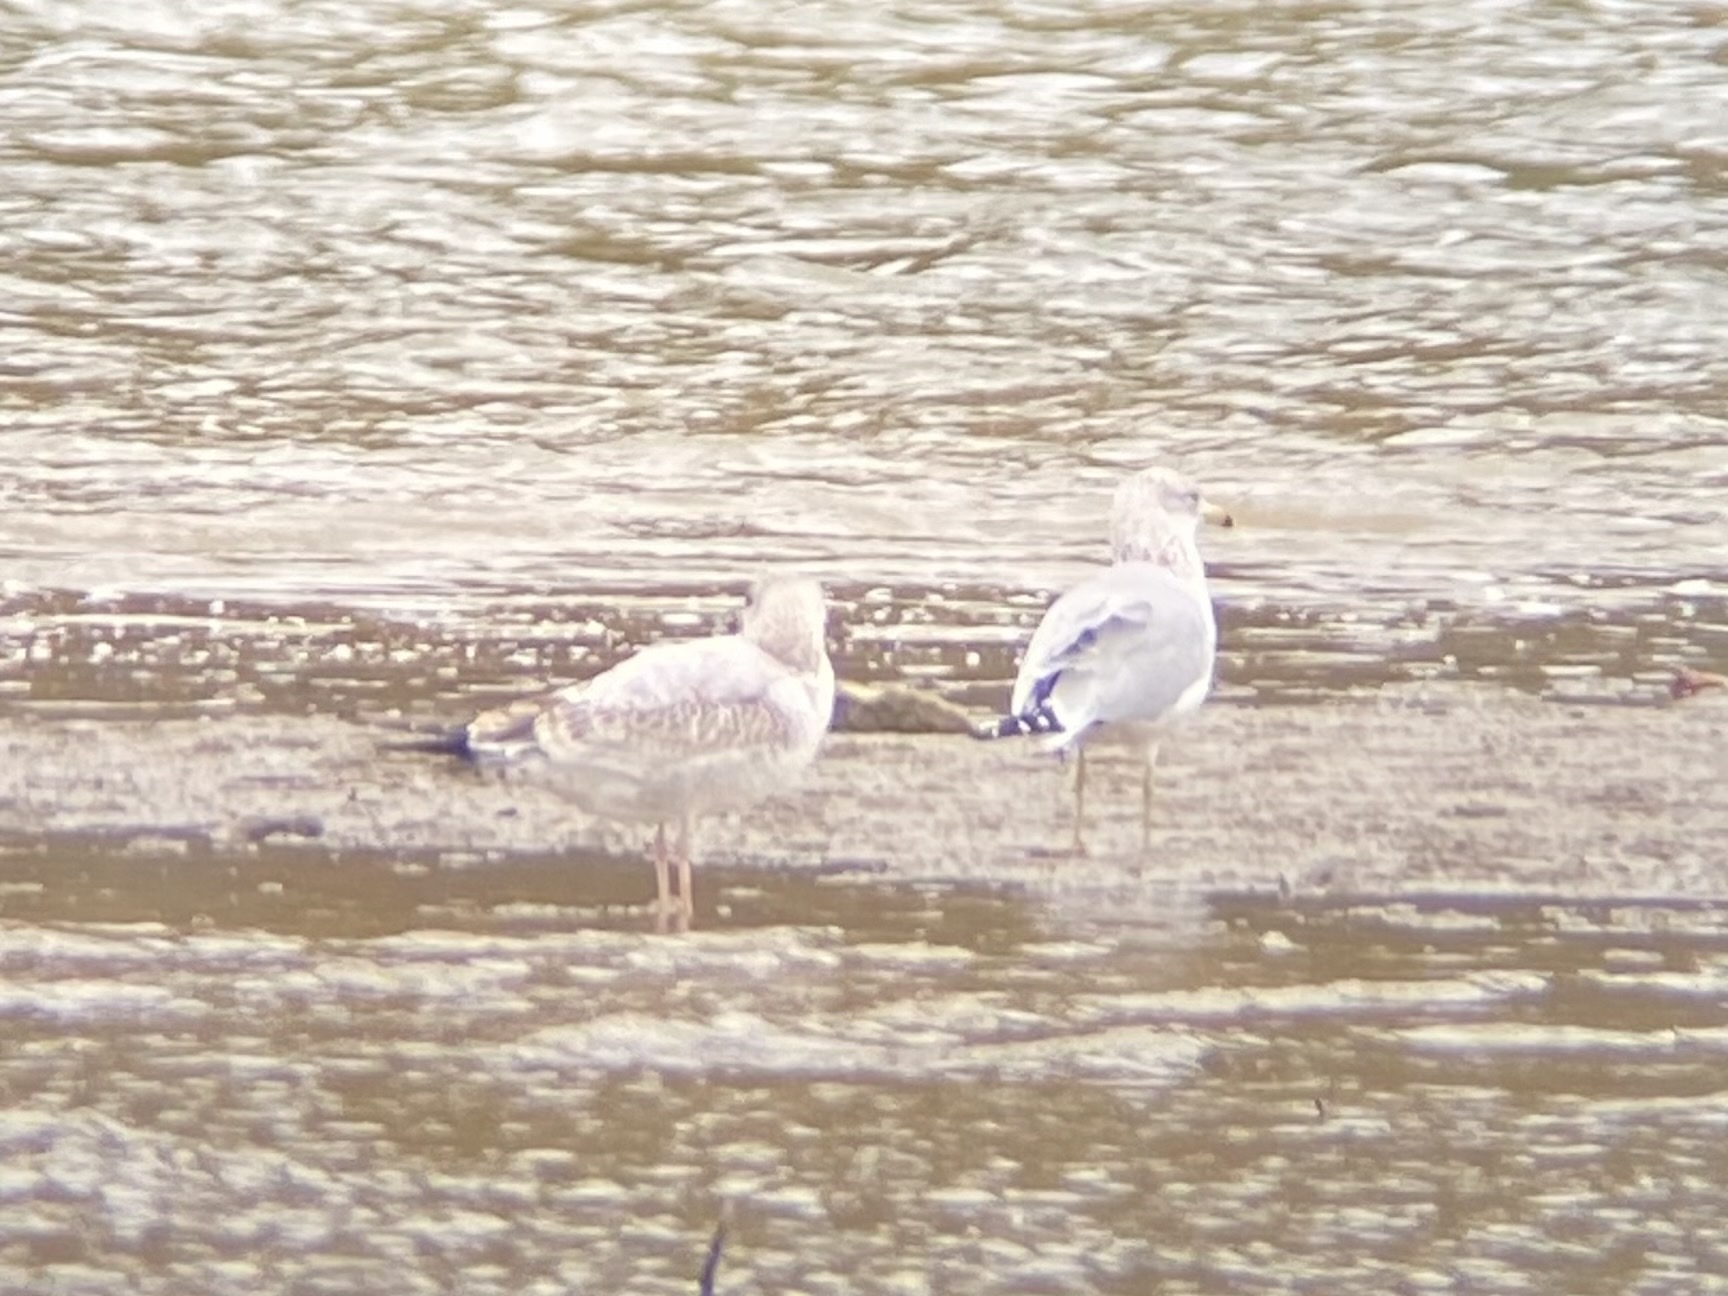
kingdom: Animalia
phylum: Chordata
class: Aves
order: Charadriiformes
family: Laridae
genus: Larus
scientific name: Larus delawarensis
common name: Ring-billed gull
